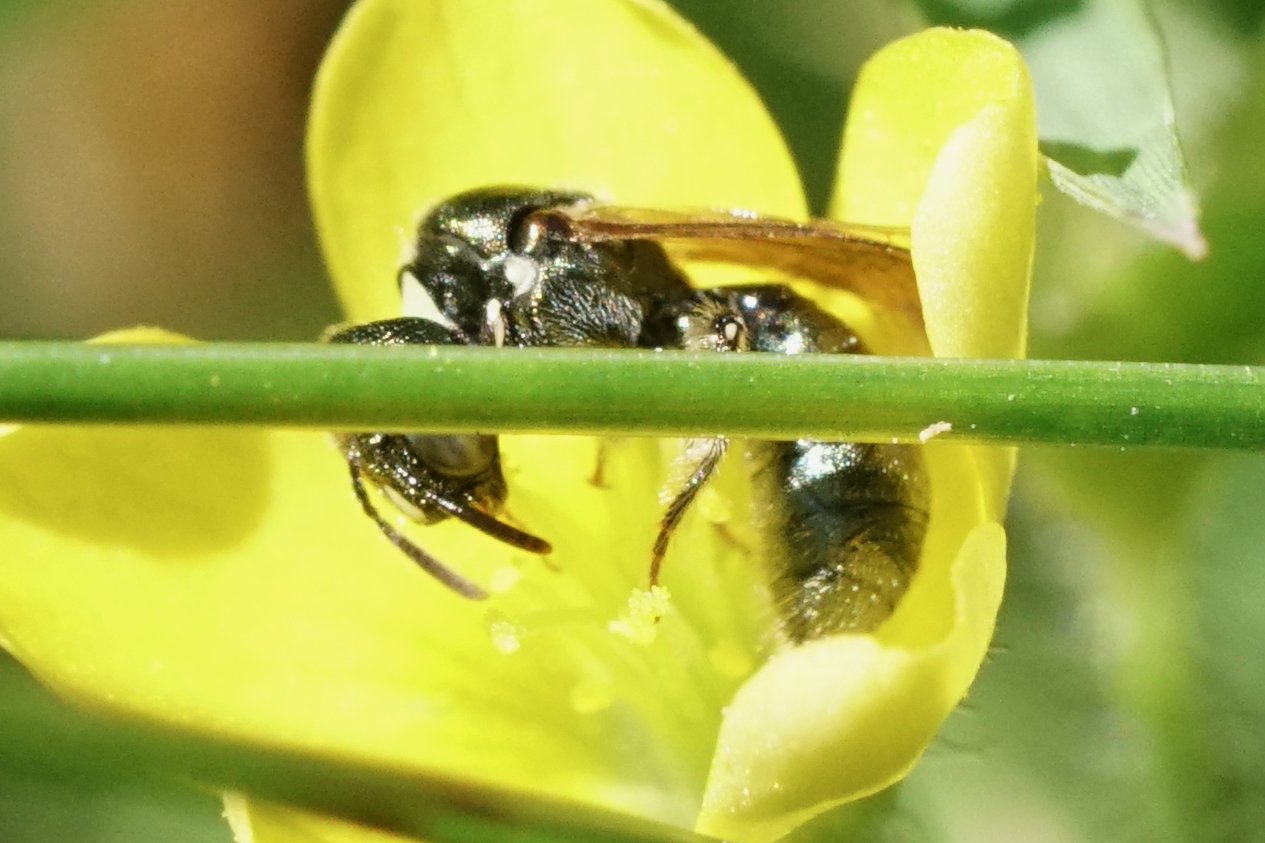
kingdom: Animalia
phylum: Arthropoda
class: Insecta
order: Hymenoptera
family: Apidae
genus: Ceratina
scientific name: Ceratina strenua
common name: Nimble carpenter bee
